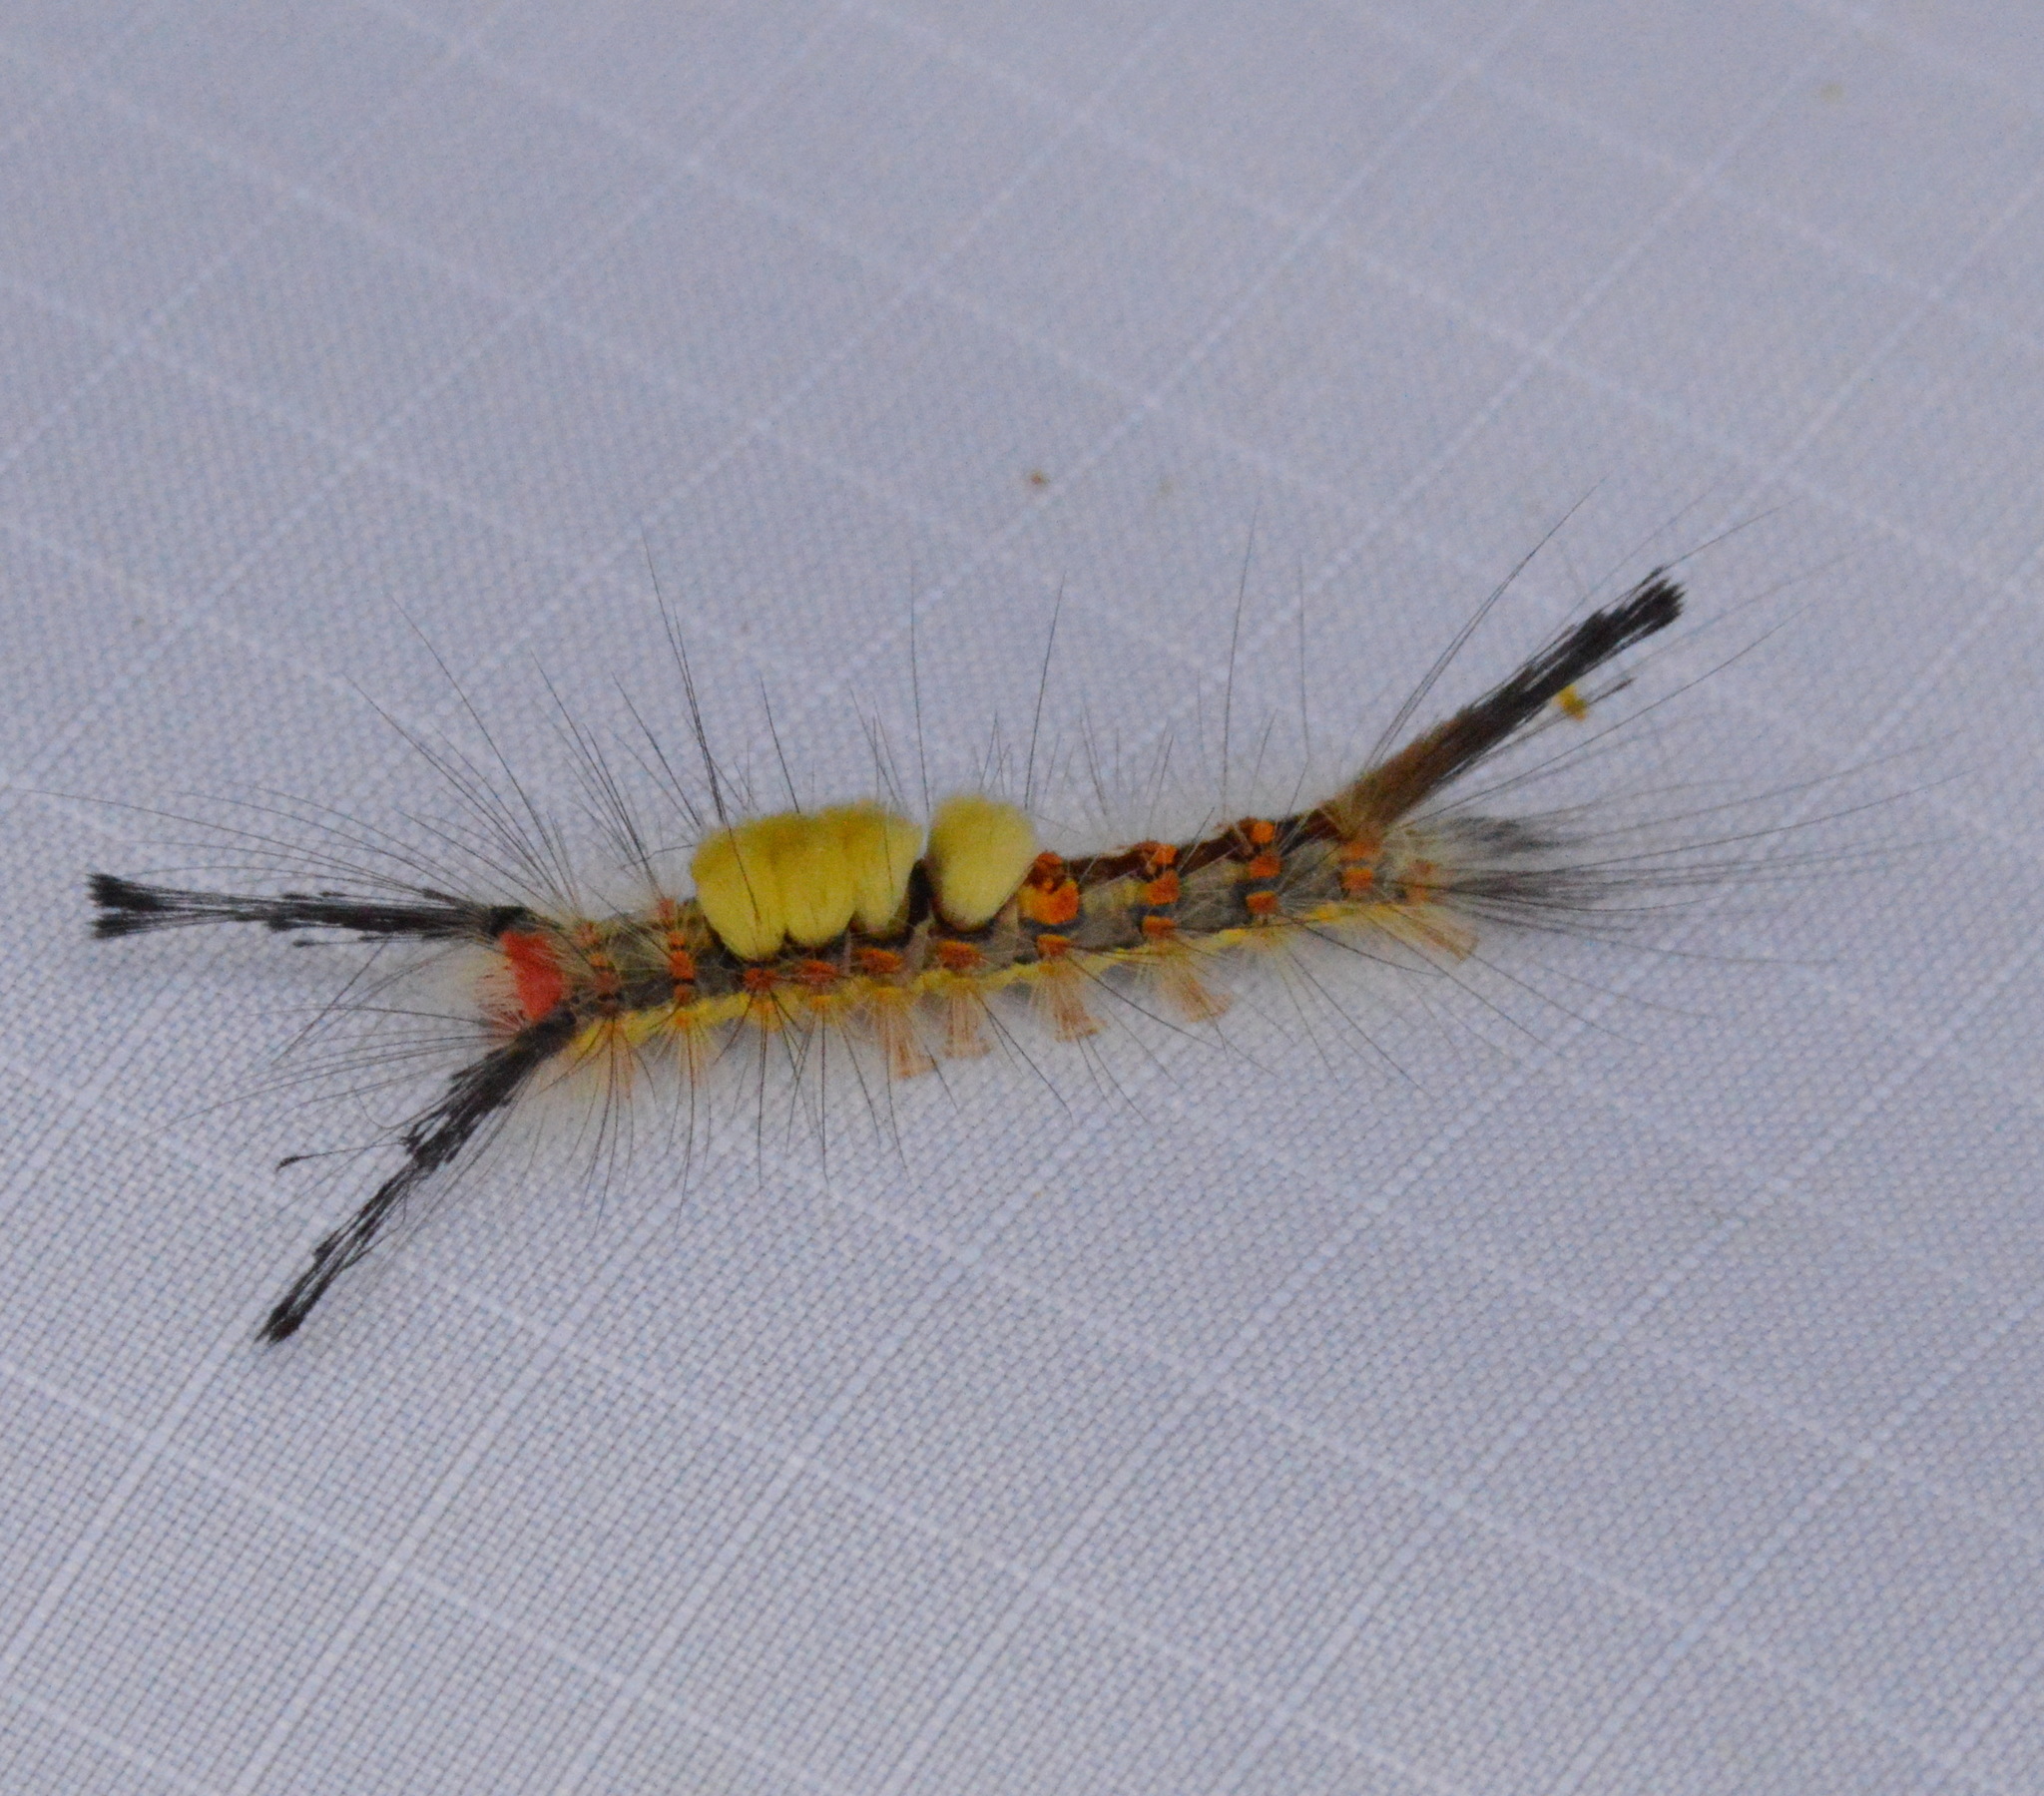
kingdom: Animalia
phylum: Arthropoda
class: Insecta
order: Lepidoptera
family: Erebidae
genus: Orgyia
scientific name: Orgyia detrita
